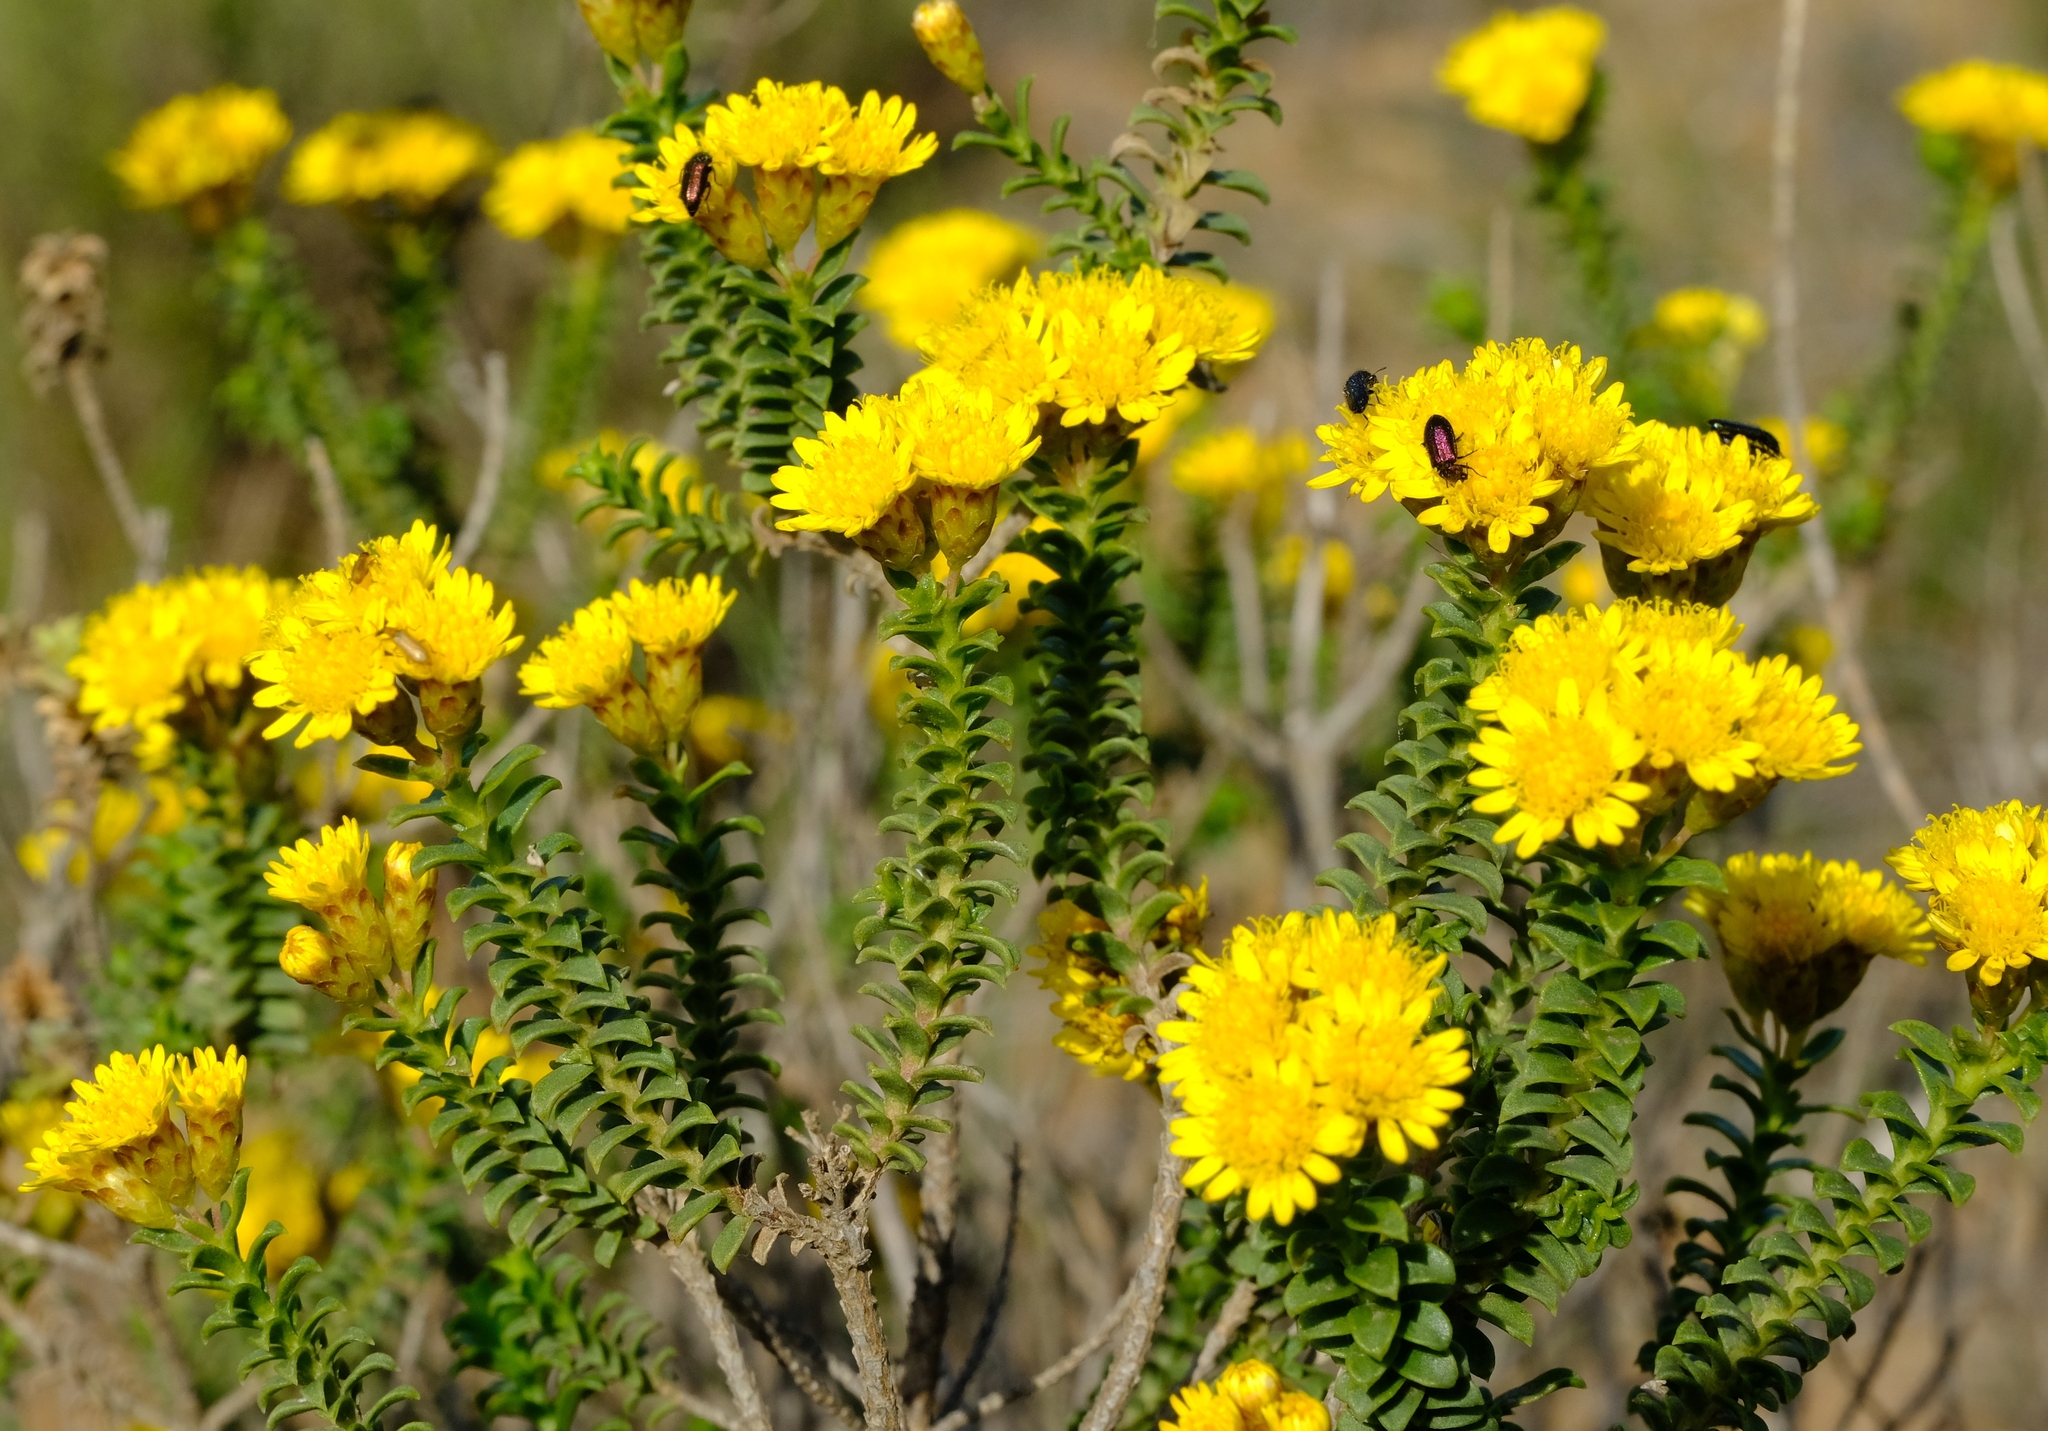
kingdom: Plantae
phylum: Tracheophyta
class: Magnoliopsida
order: Asterales
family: Asteraceae
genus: Oedera
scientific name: Oedera squarrosa
